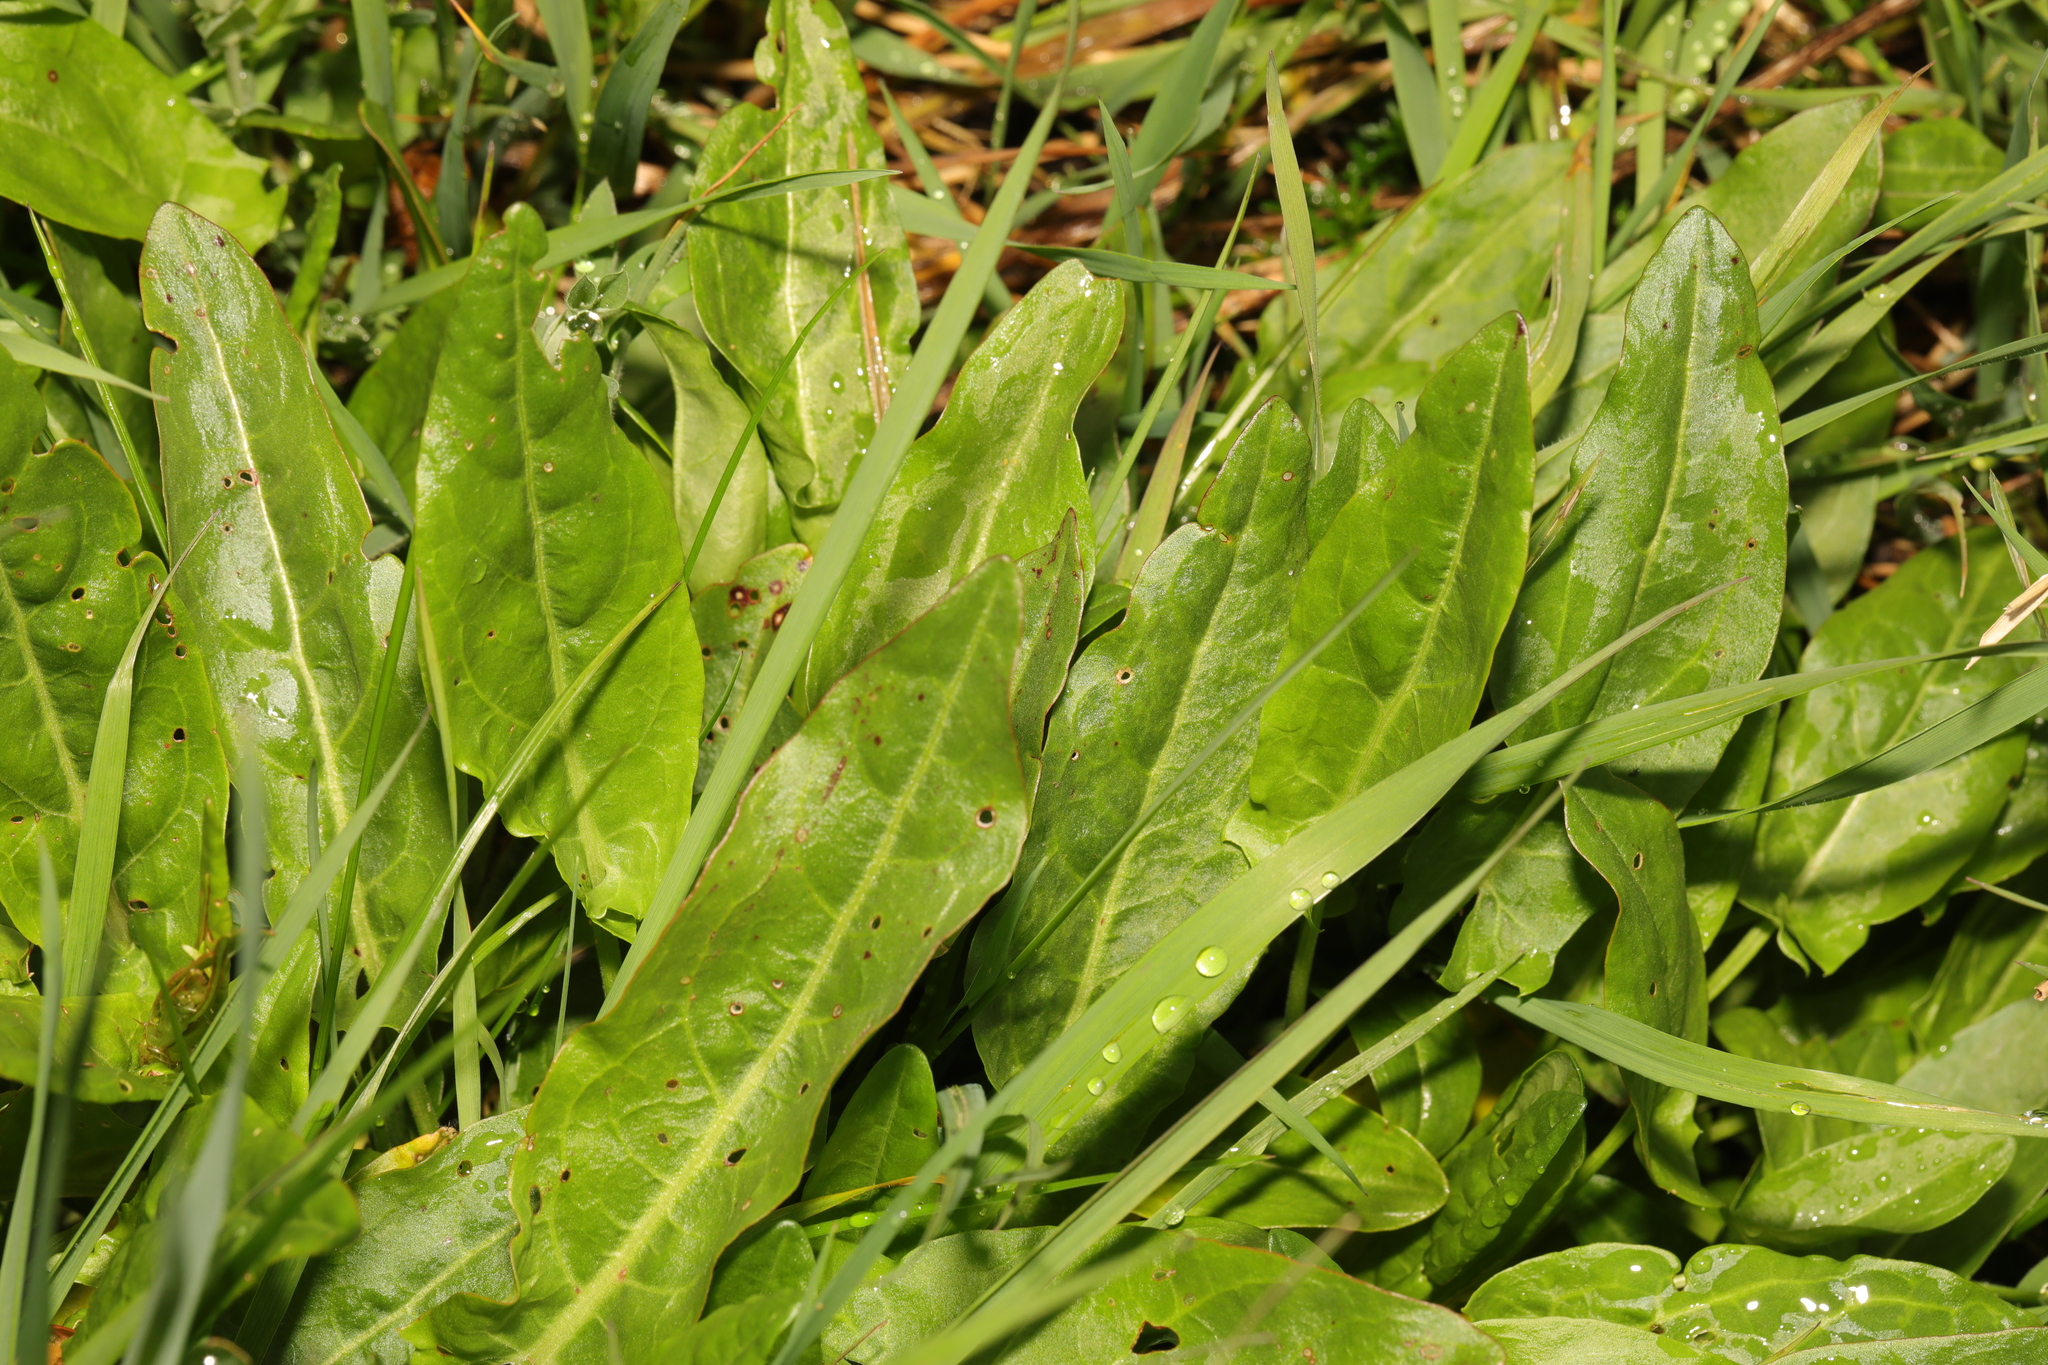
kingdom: Plantae
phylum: Tracheophyta
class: Magnoliopsida
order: Caryophyllales
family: Polygonaceae
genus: Rumex
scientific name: Rumex acetosa
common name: Garden sorrel
